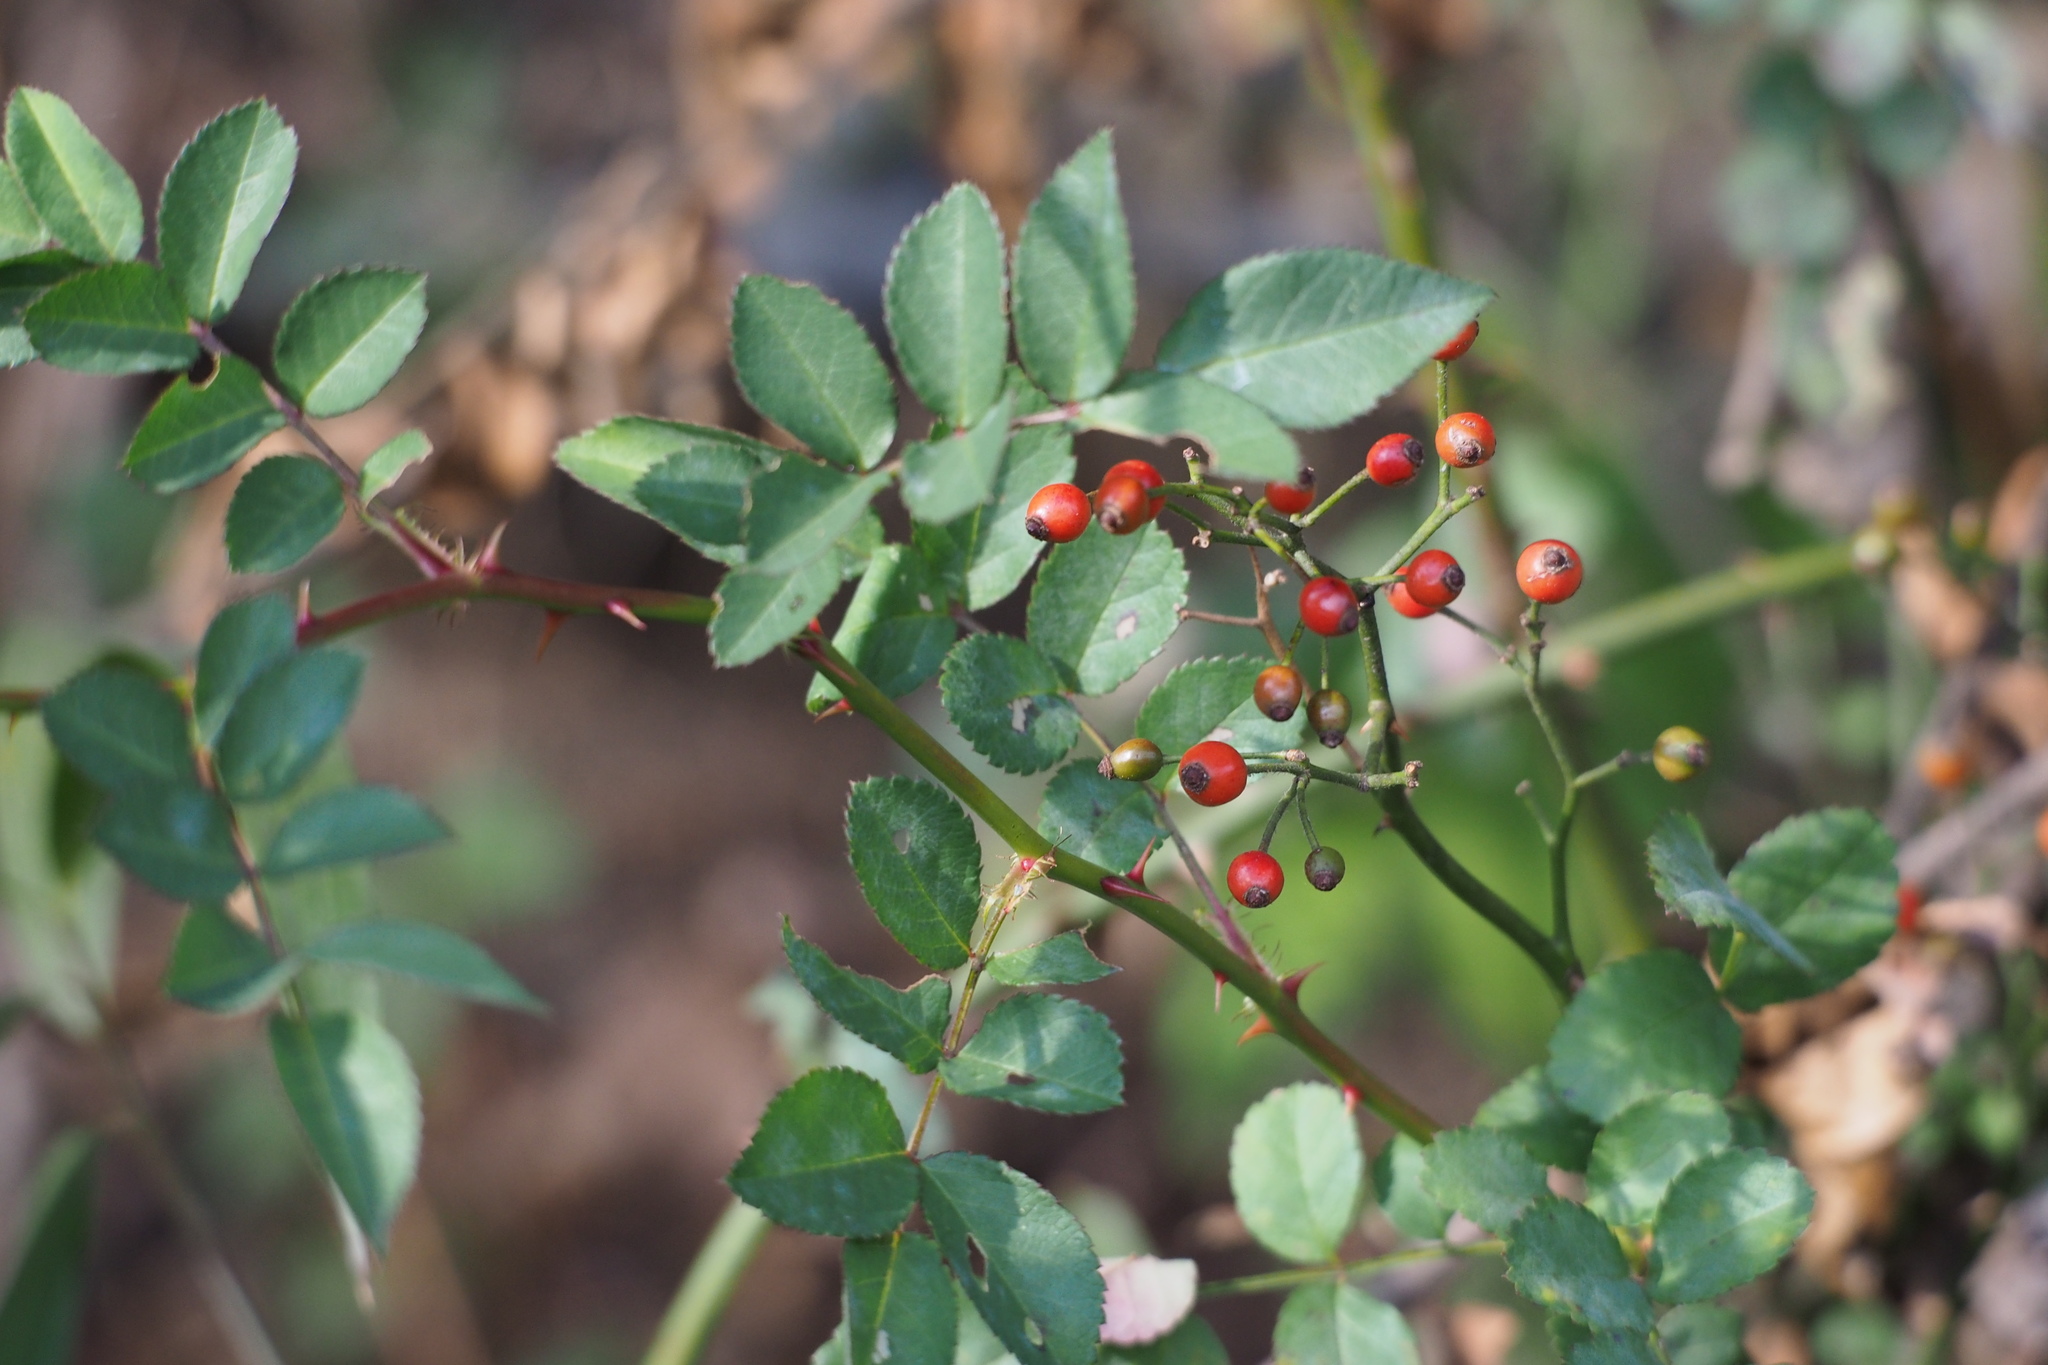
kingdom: Plantae
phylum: Tracheophyta
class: Magnoliopsida
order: Rosales
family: Rosaceae
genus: Rosa
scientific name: Rosa multiflora
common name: Multiflora rose
